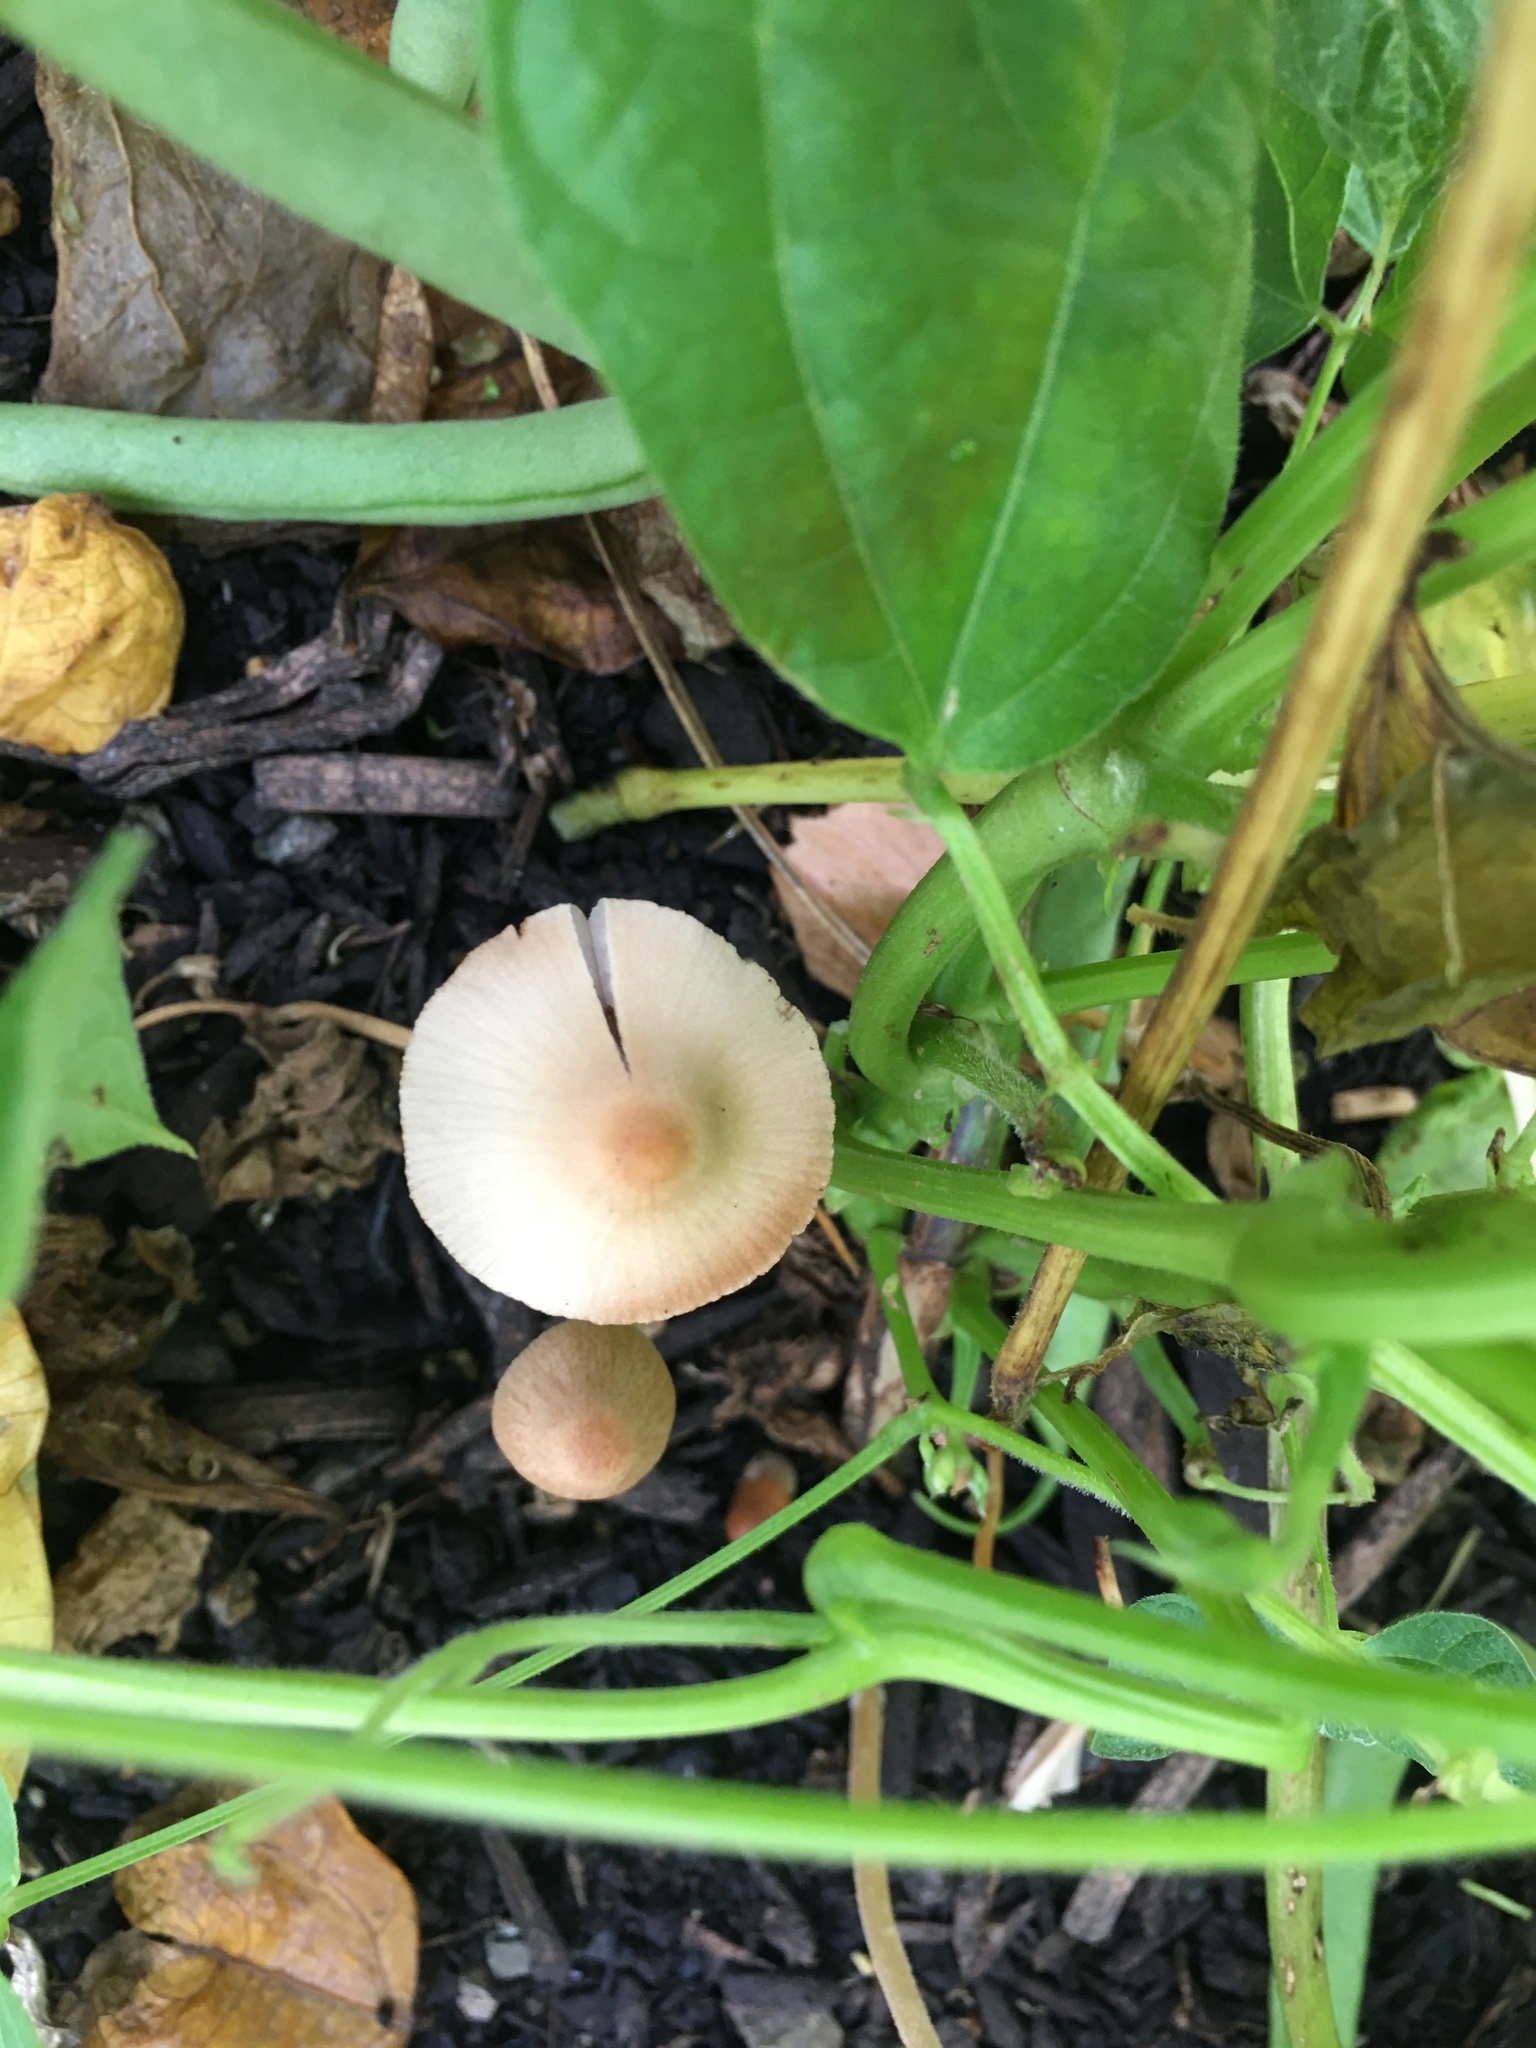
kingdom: Fungi
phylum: Basidiomycota
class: Agaricomycetes
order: Agaricales
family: Bolbitiaceae
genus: Conocybe
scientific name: Conocybe apala
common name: Milky conecap
